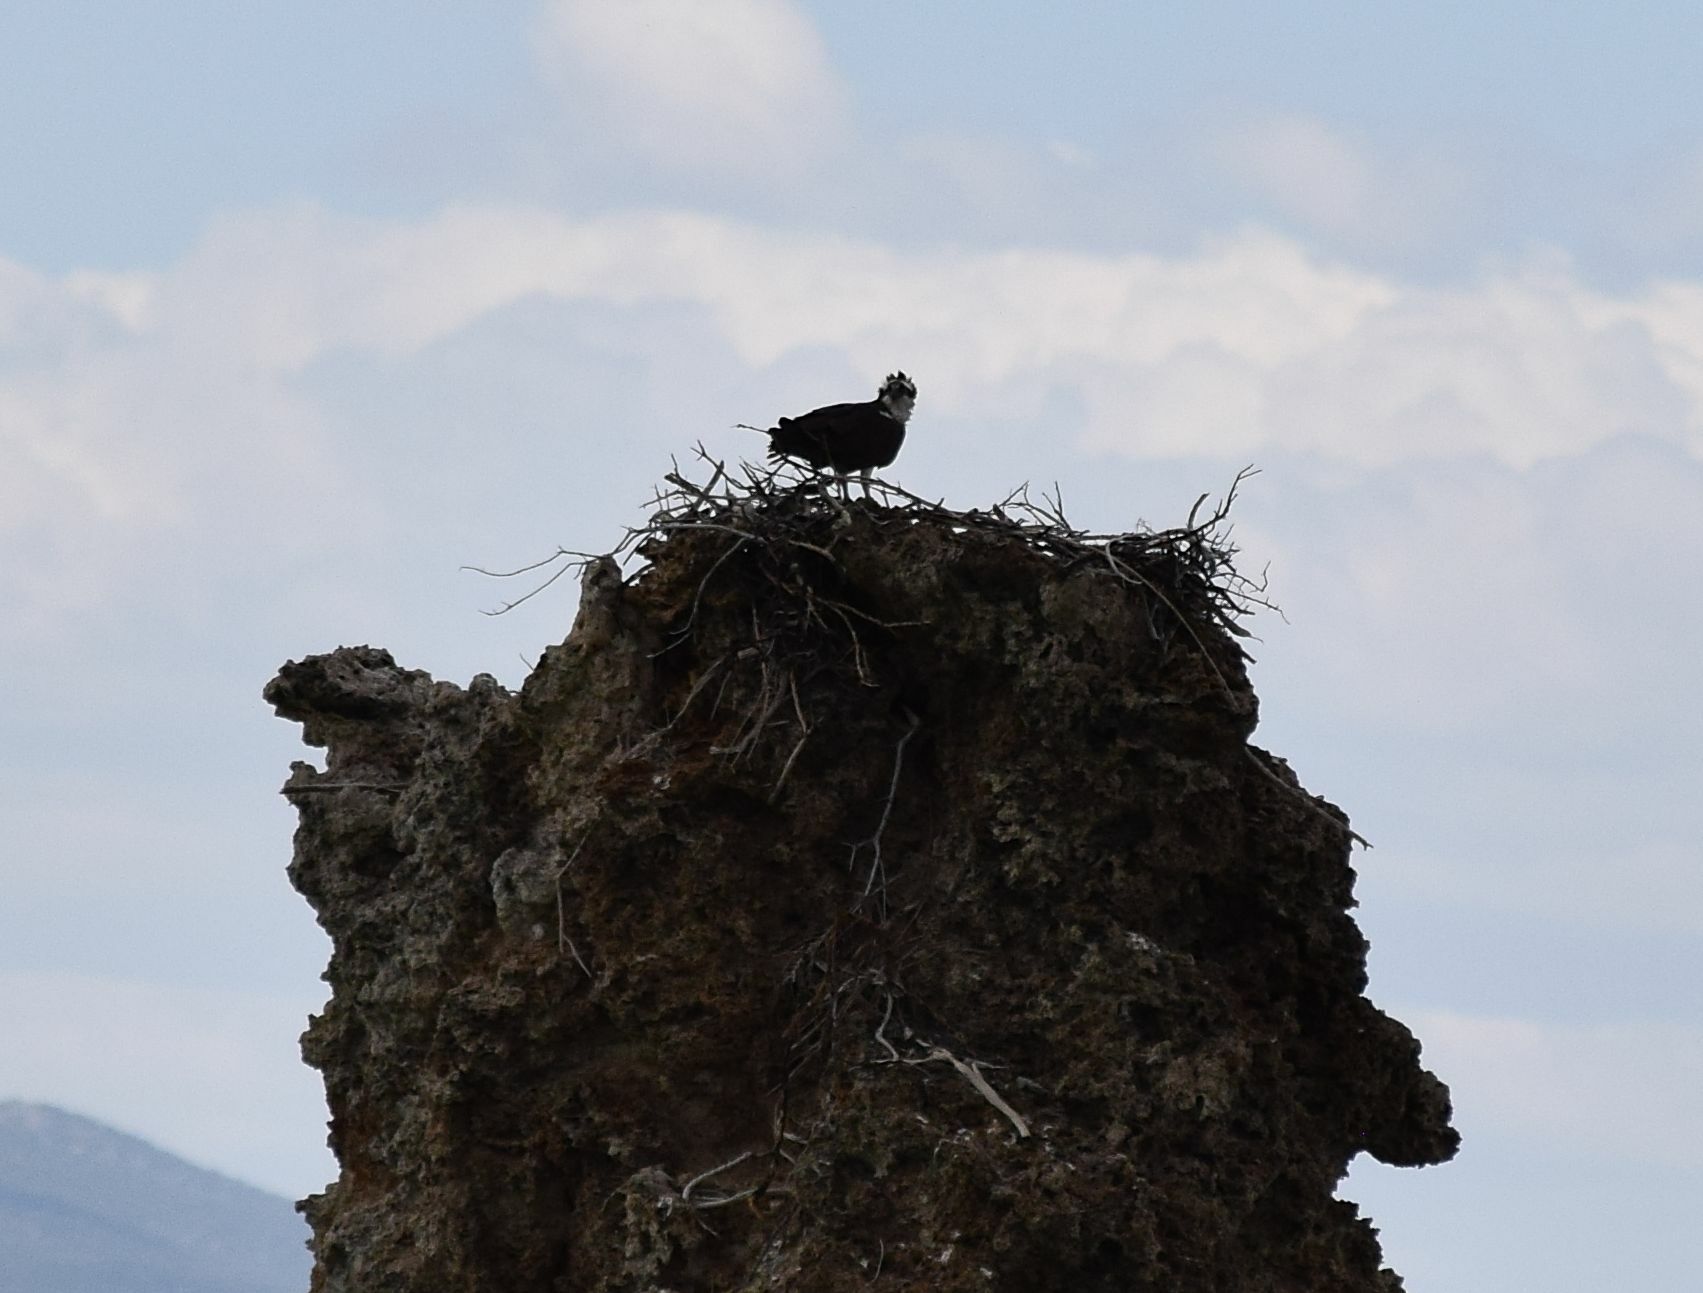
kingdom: Animalia
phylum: Chordata
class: Aves
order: Accipitriformes
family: Pandionidae
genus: Pandion
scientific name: Pandion haliaetus
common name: Osprey
